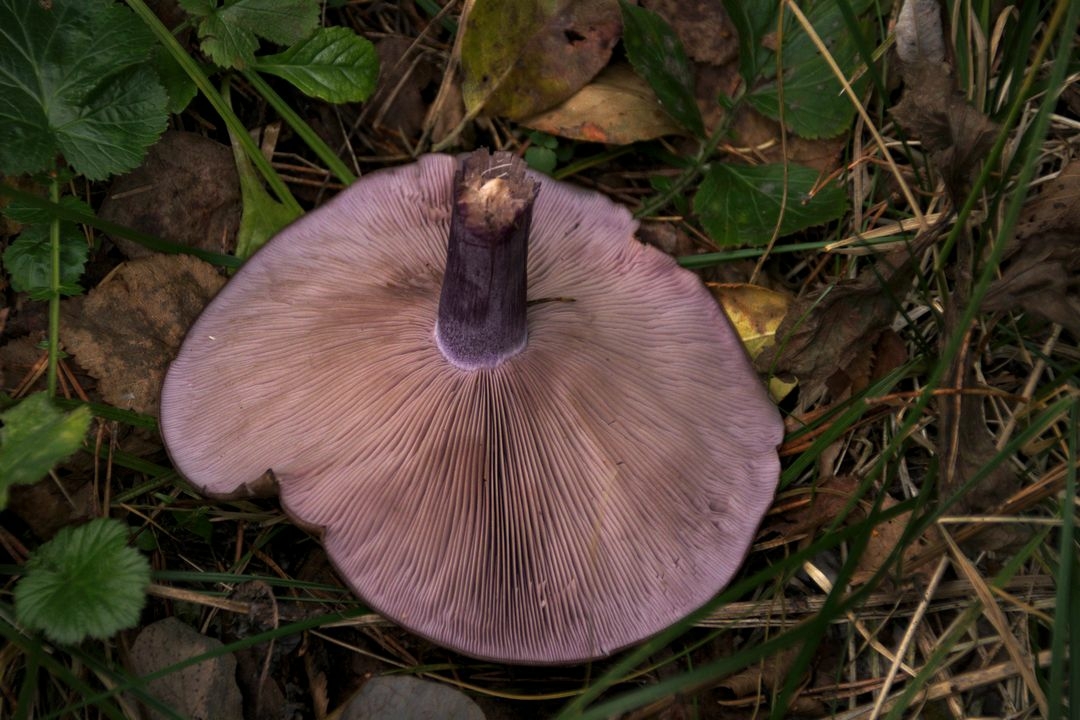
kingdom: Fungi
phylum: Basidiomycota
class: Agaricomycetes
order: Agaricales
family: Tricholomataceae
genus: Collybia
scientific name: Collybia
